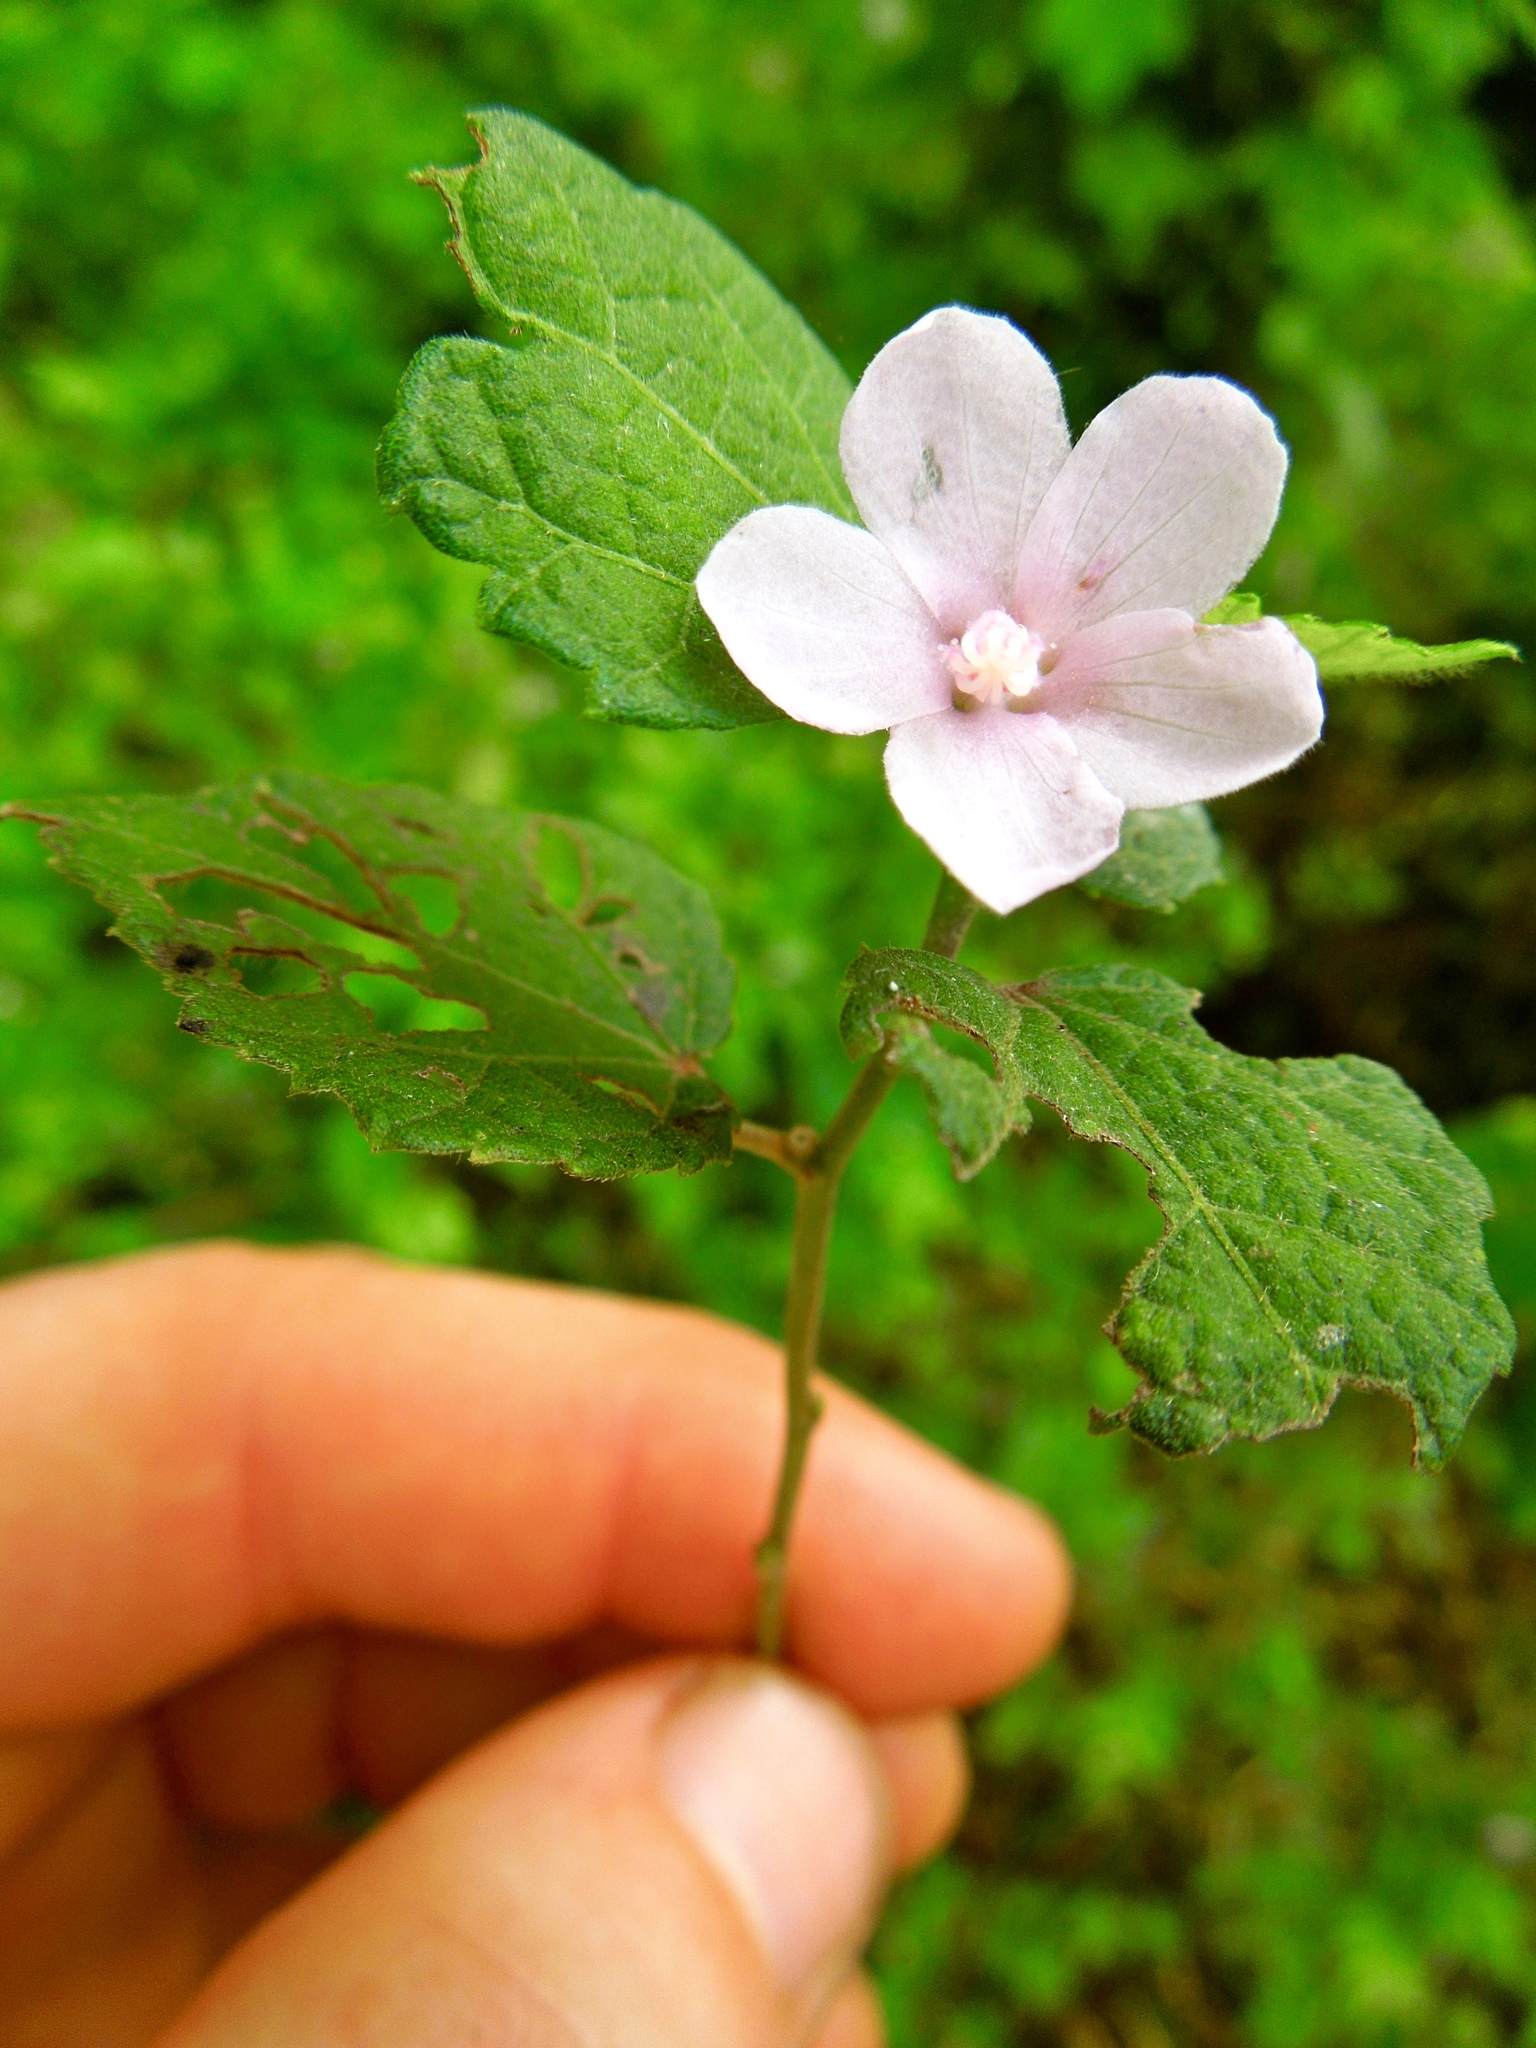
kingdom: Plantae
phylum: Tracheophyta
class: Magnoliopsida
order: Malvales
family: Malvaceae
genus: Urena
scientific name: Urena lobata
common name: Caesarweed
